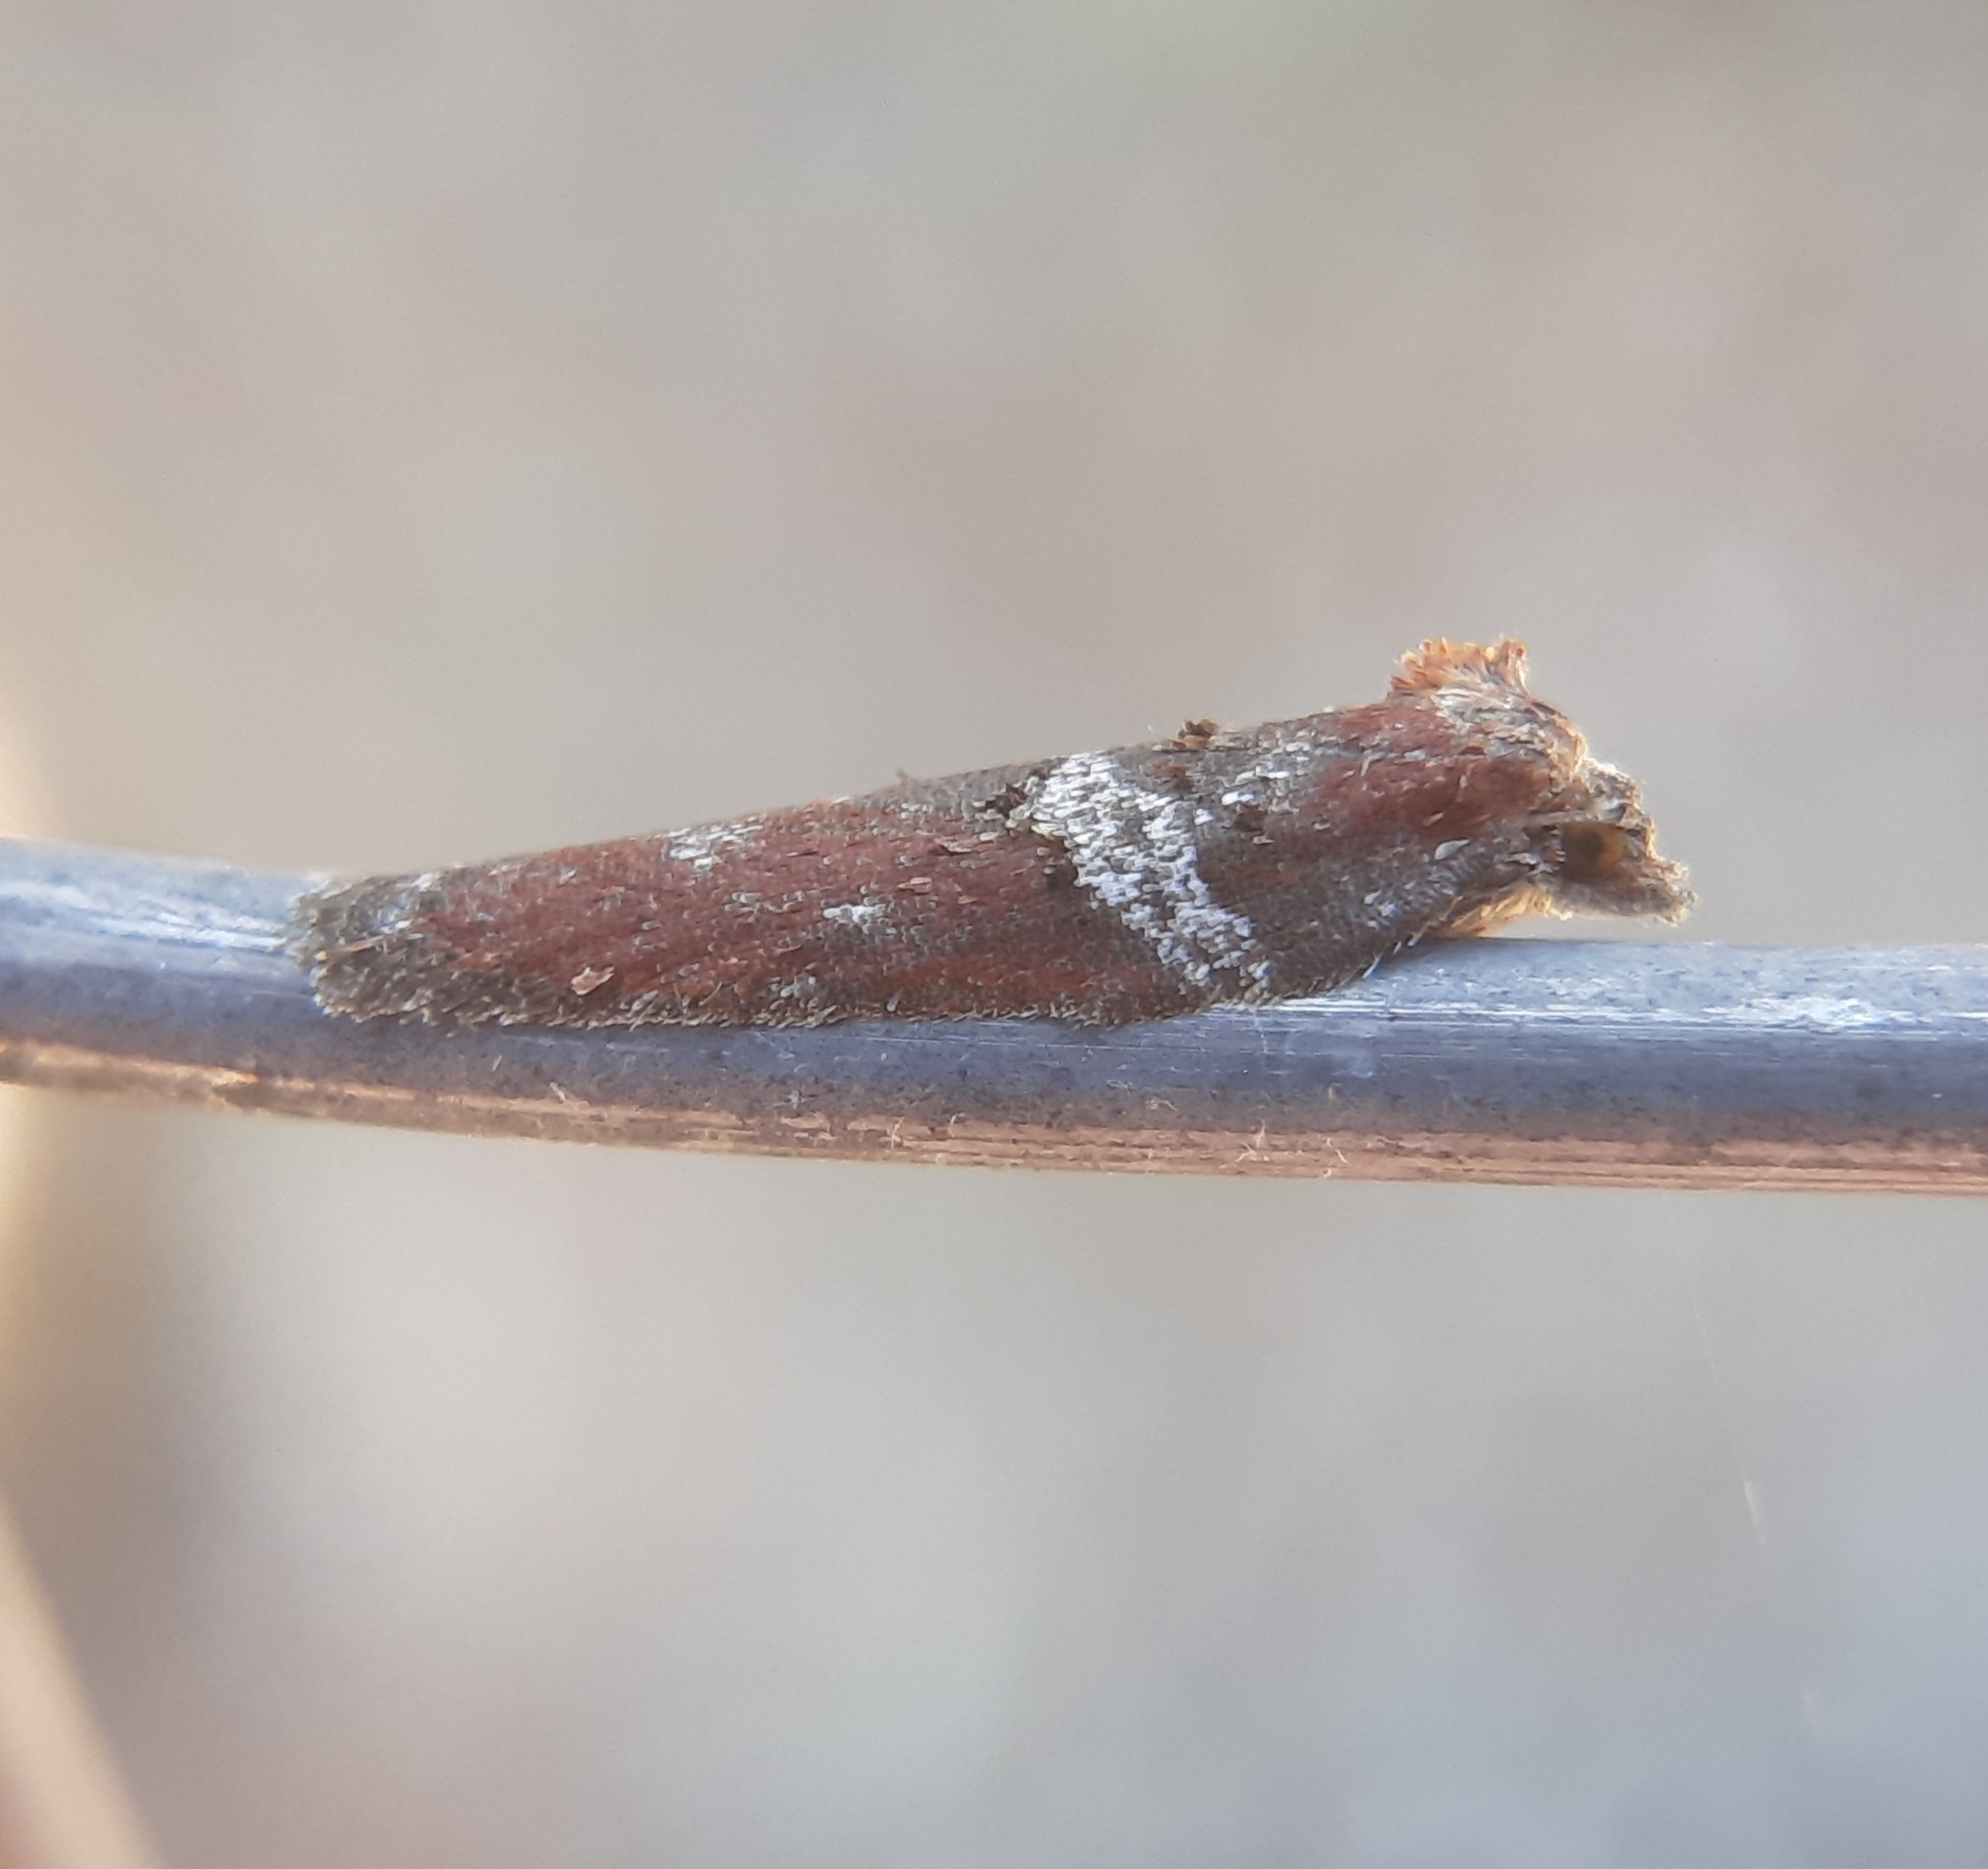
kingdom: Animalia
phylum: Arthropoda
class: Insecta
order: Lepidoptera
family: Tortricidae
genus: Acleris
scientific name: Acleris celiana
